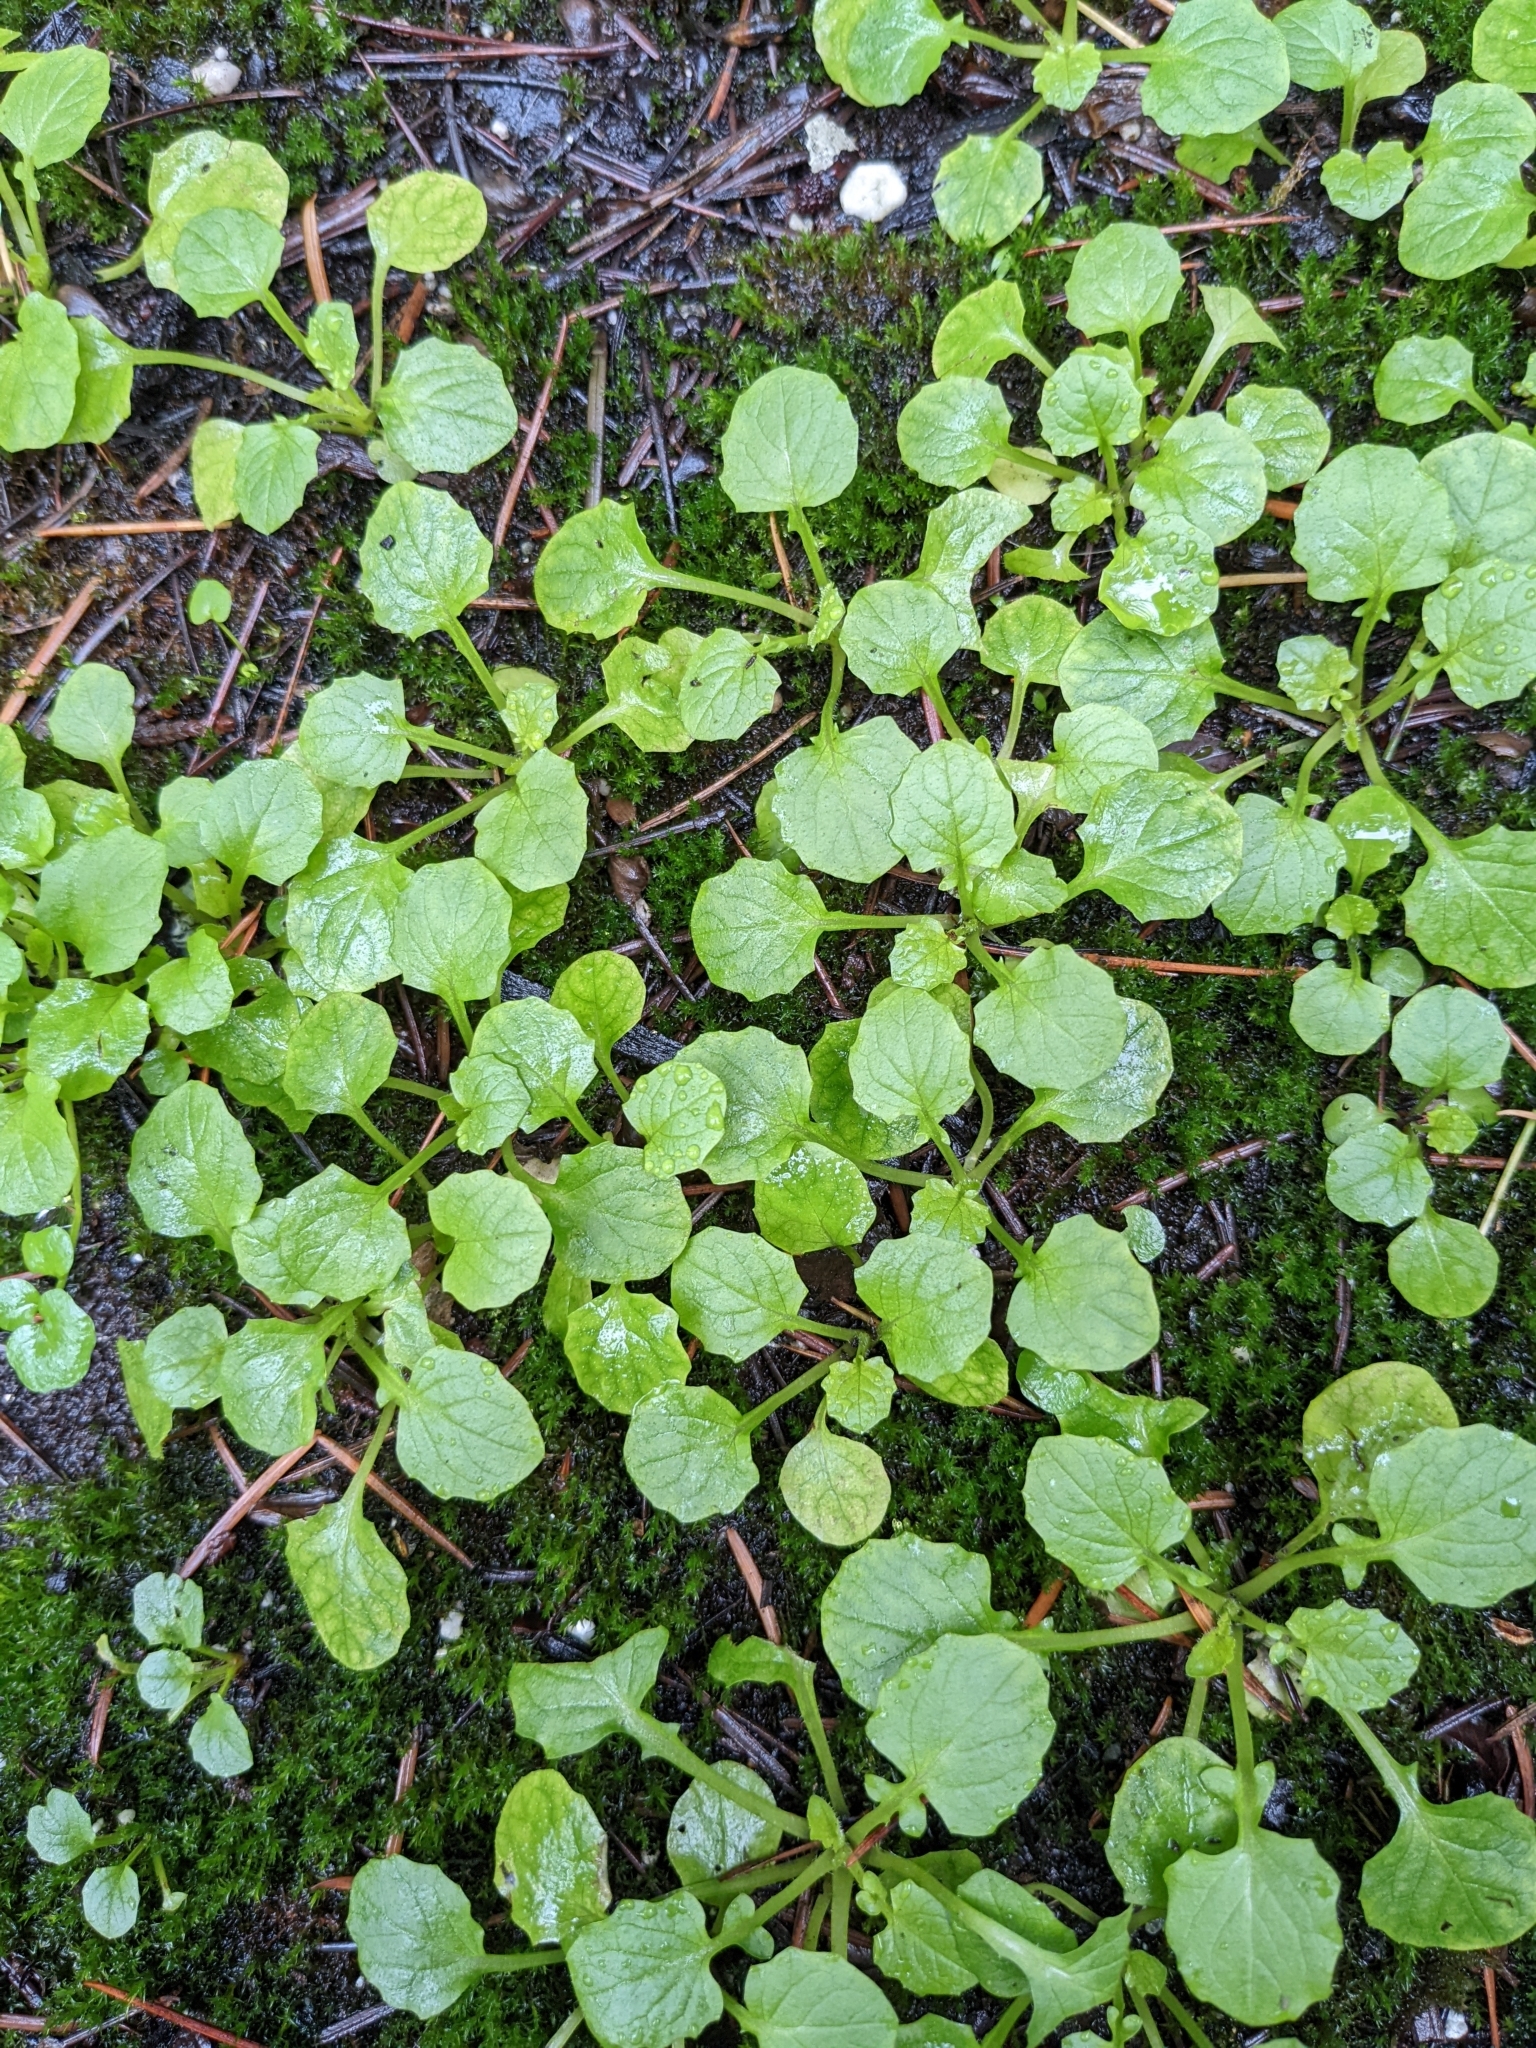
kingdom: Plantae
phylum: Tracheophyta
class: Magnoliopsida
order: Asterales
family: Asteraceae
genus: Lapsana
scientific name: Lapsana communis
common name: Nipplewort
